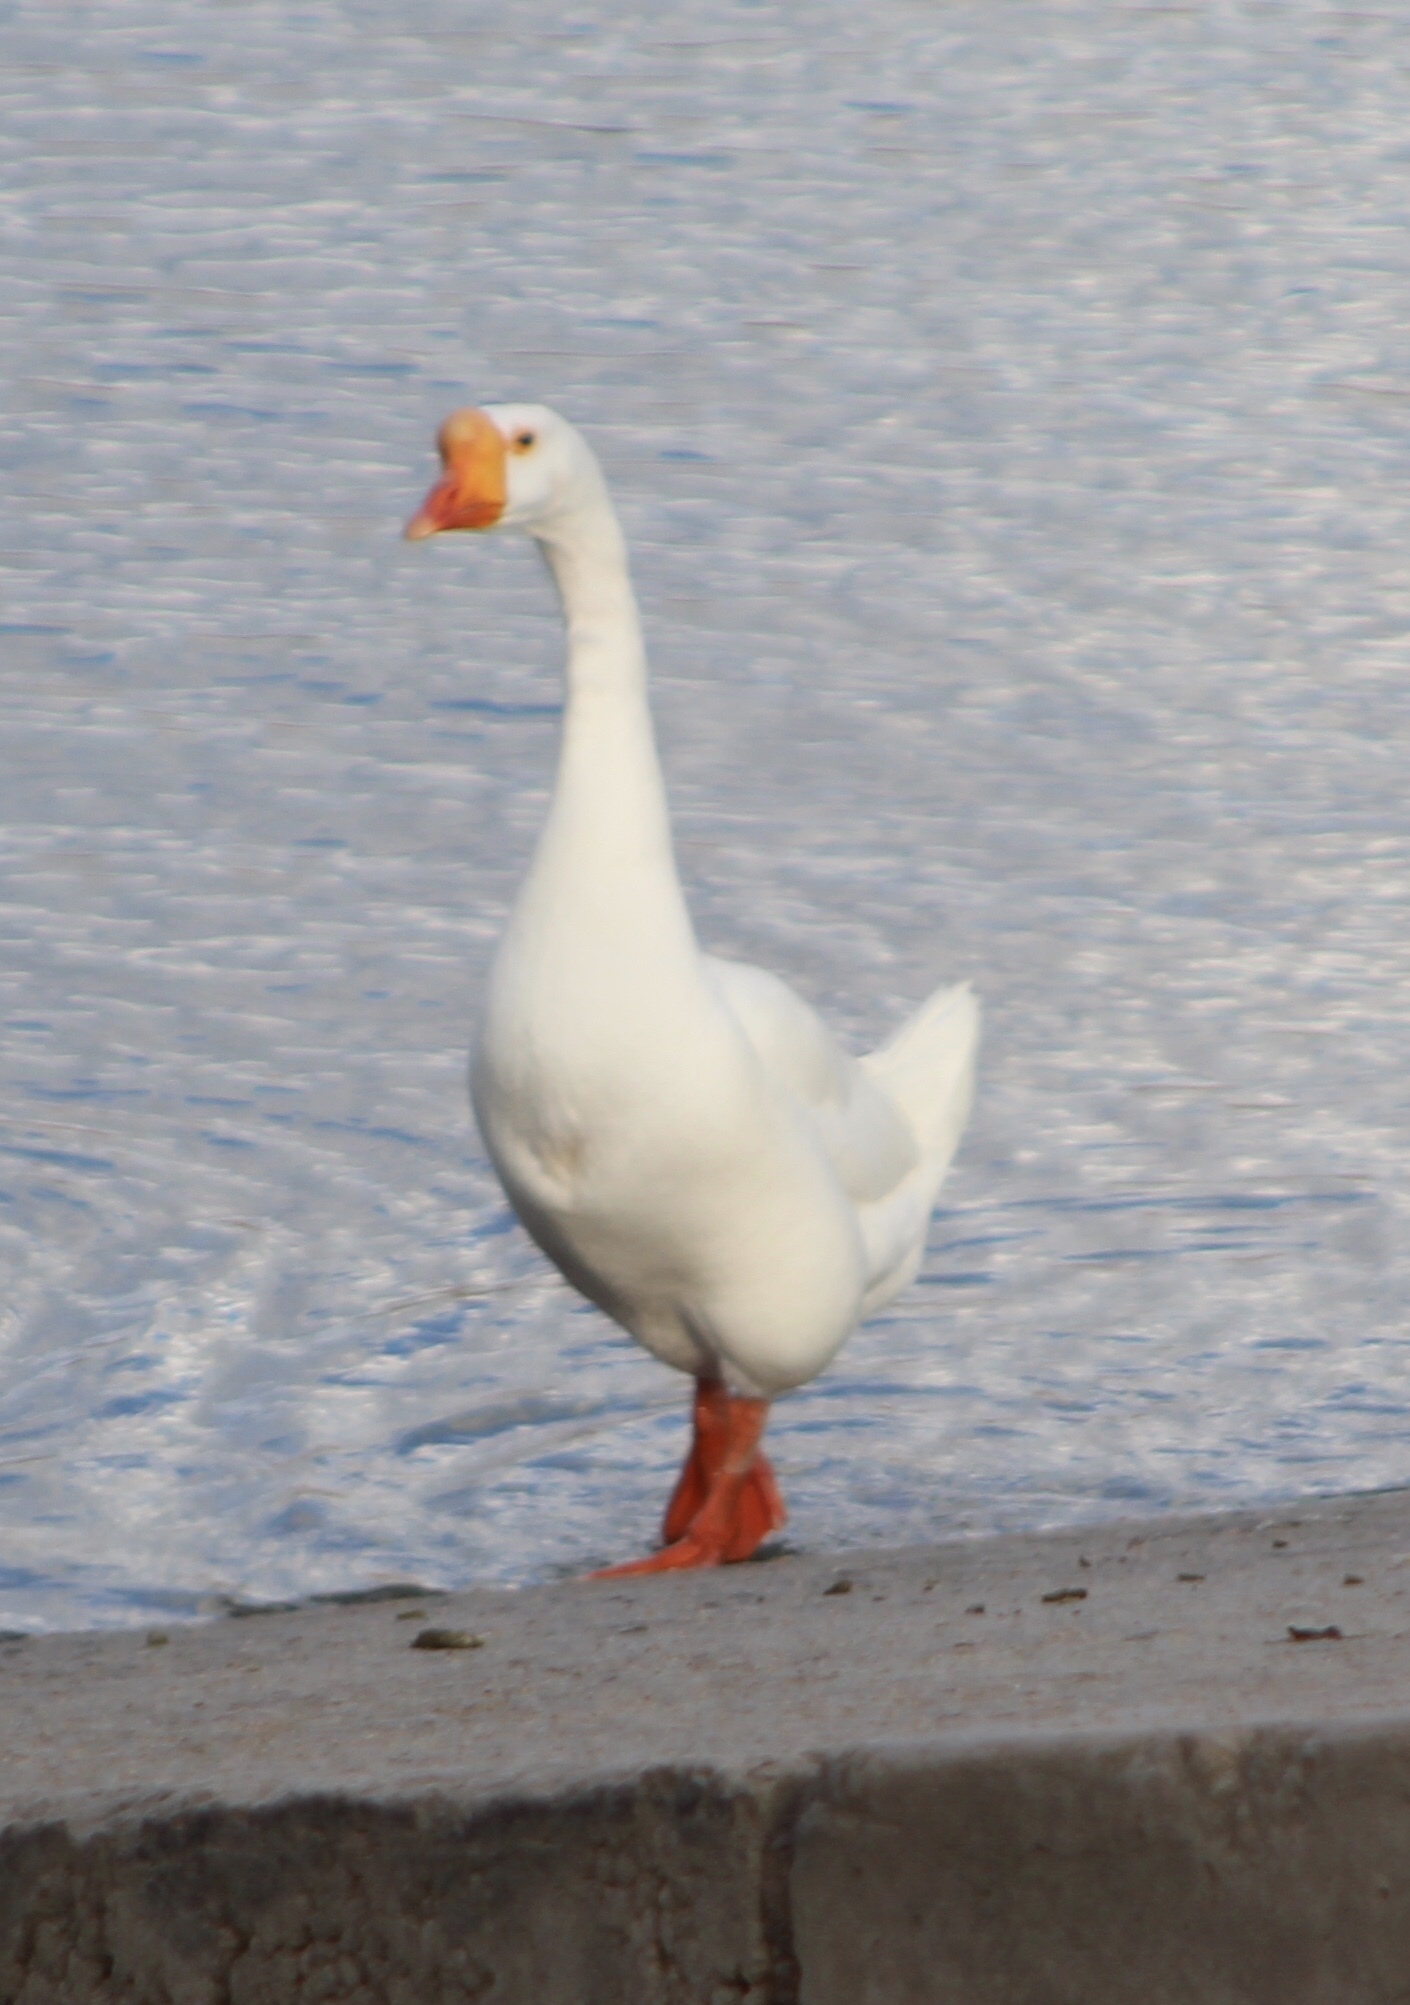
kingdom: Animalia
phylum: Chordata
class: Aves
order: Anseriformes
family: Anatidae
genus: Anser
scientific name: Anser cygnoides
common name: Swan goose
